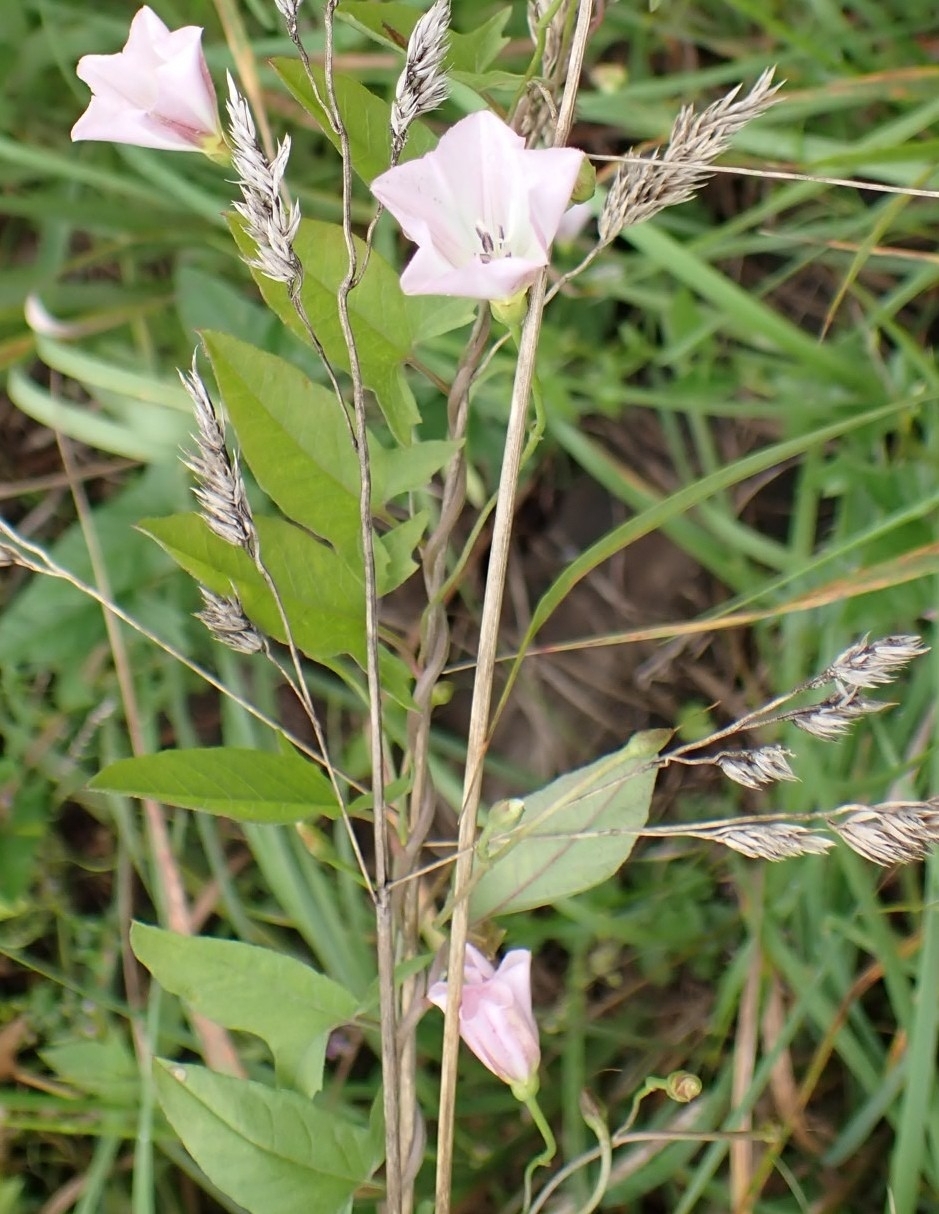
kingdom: Plantae
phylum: Tracheophyta
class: Magnoliopsida
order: Solanales
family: Convolvulaceae
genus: Convolvulus
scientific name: Convolvulus arvensis
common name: Field bindweed
